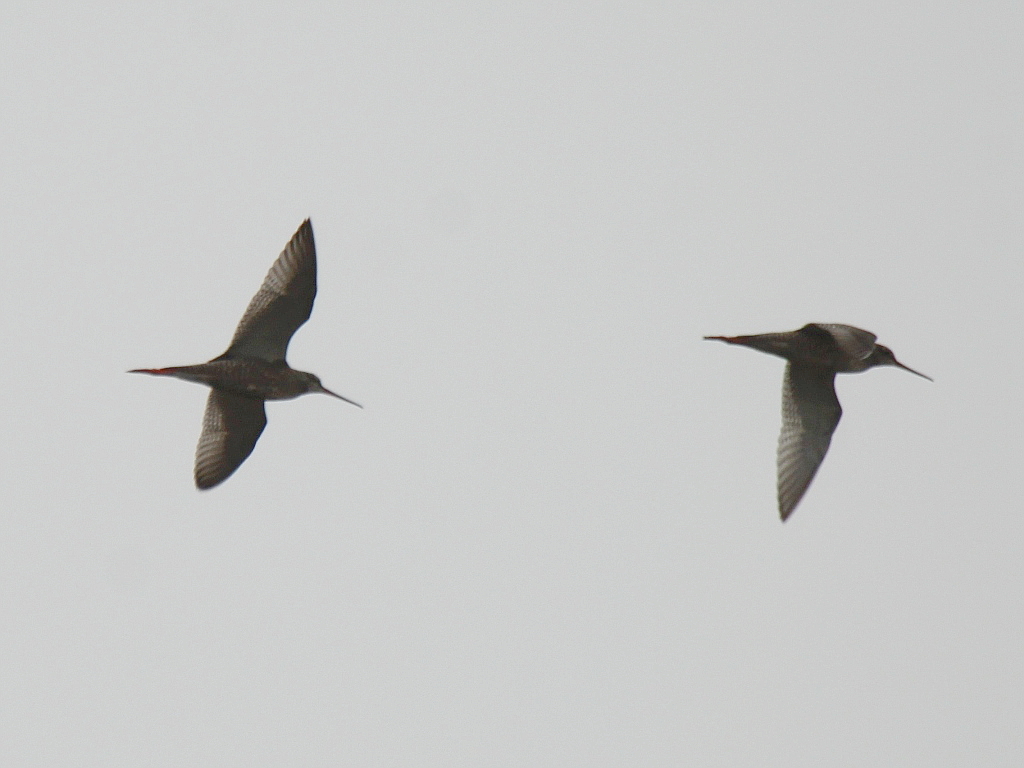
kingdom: Animalia
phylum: Chordata
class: Aves
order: Charadriiformes
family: Scolopacidae
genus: Tringa
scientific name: Tringa erythropus
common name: Spotted redshank
